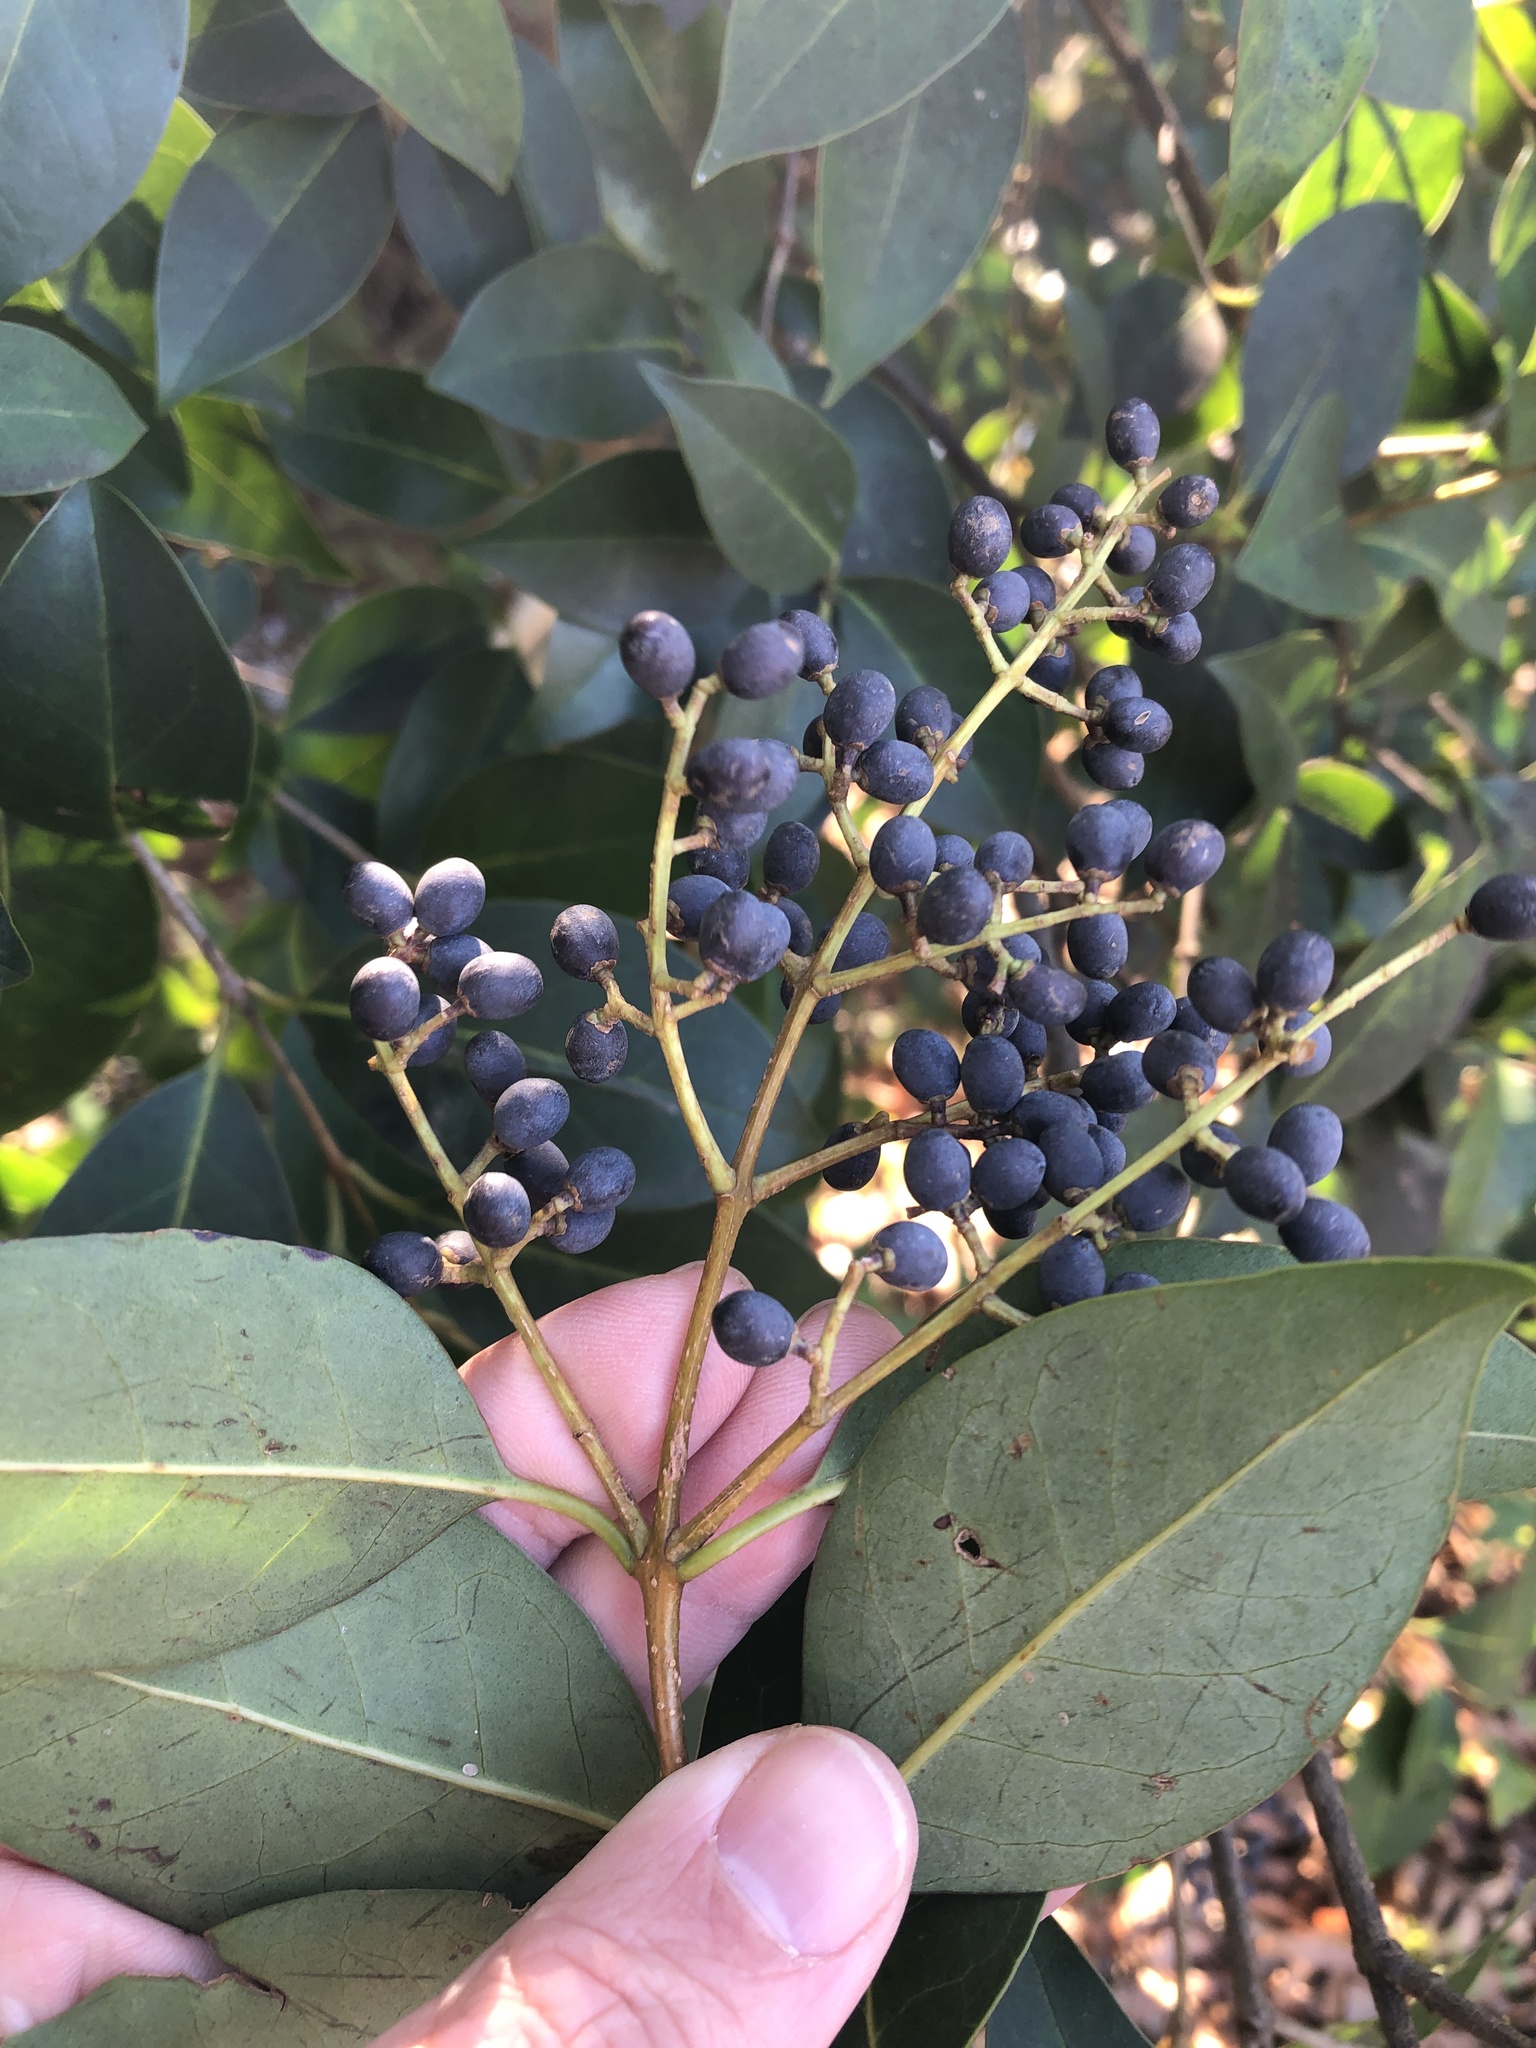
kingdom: Plantae
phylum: Tracheophyta
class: Magnoliopsida
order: Lamiales
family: Oleaceae
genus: Ligustrum
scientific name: Ligustrum lucidum
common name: Glossy privet
